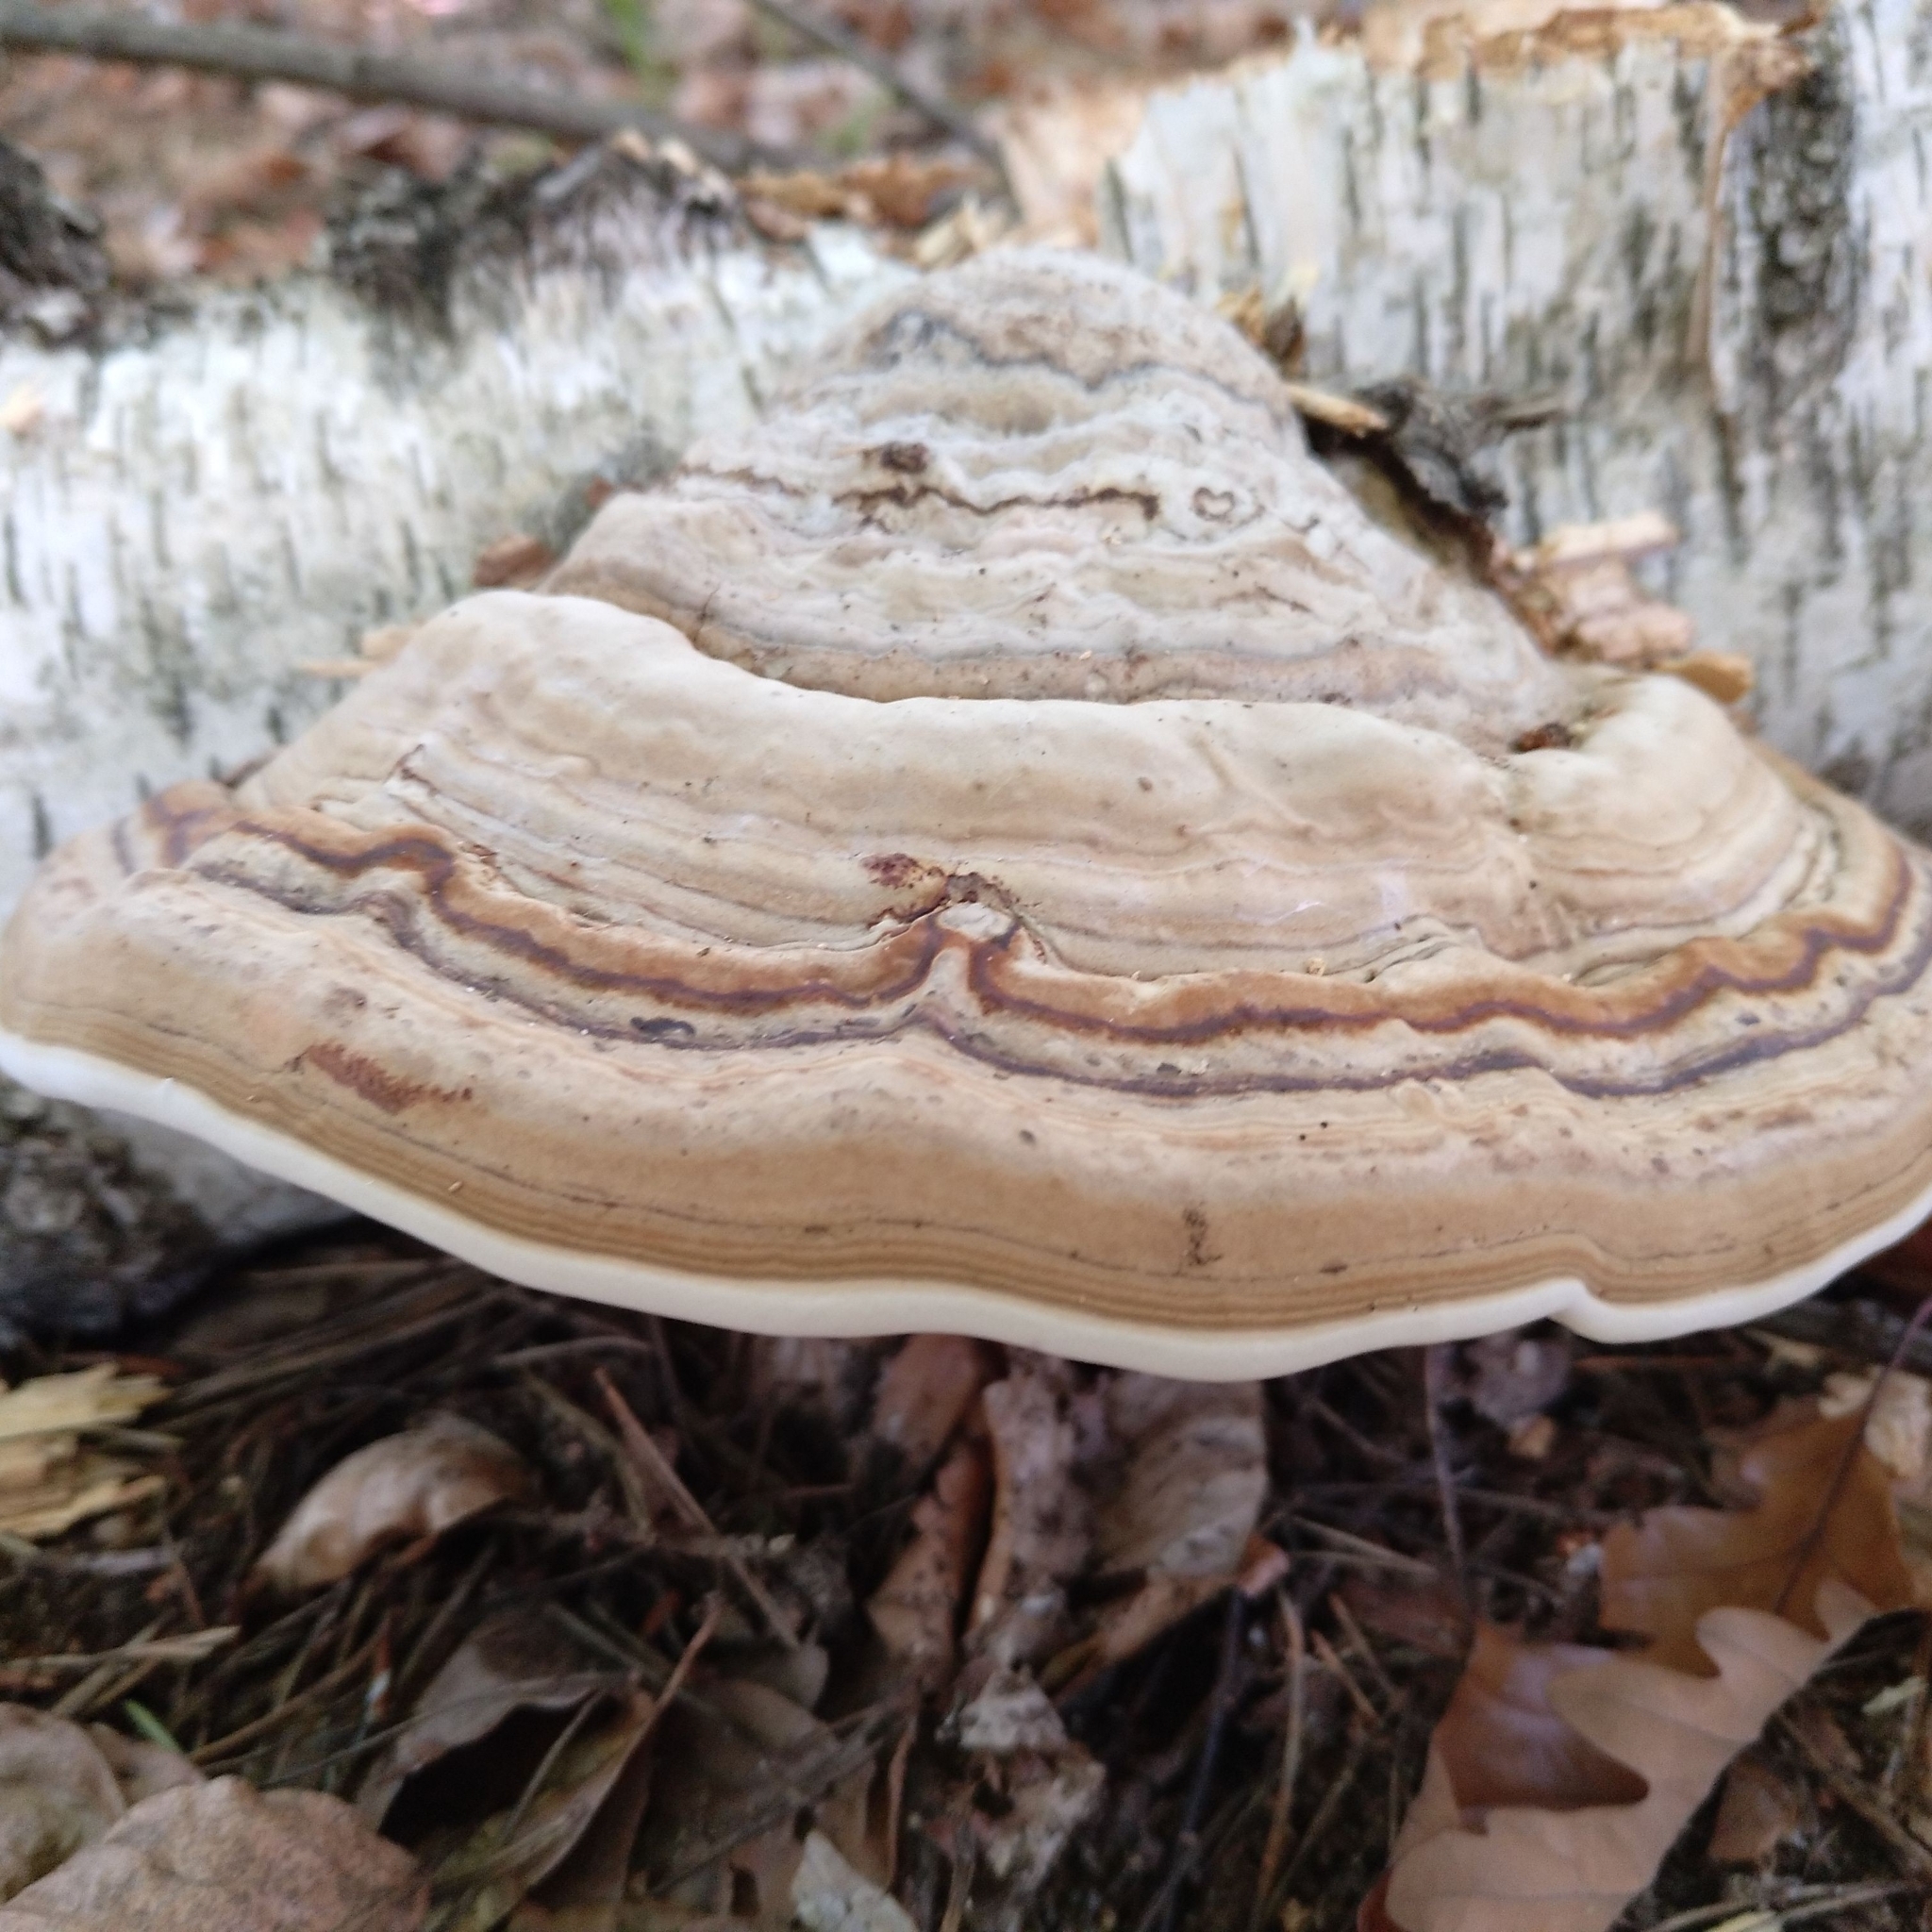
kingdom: Fungi
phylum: Basidiomycota
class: Agaricomycetes
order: Polyporales
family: Polyporaceae
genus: Fomes
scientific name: Fomes fomentarius
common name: Hoof fungus
